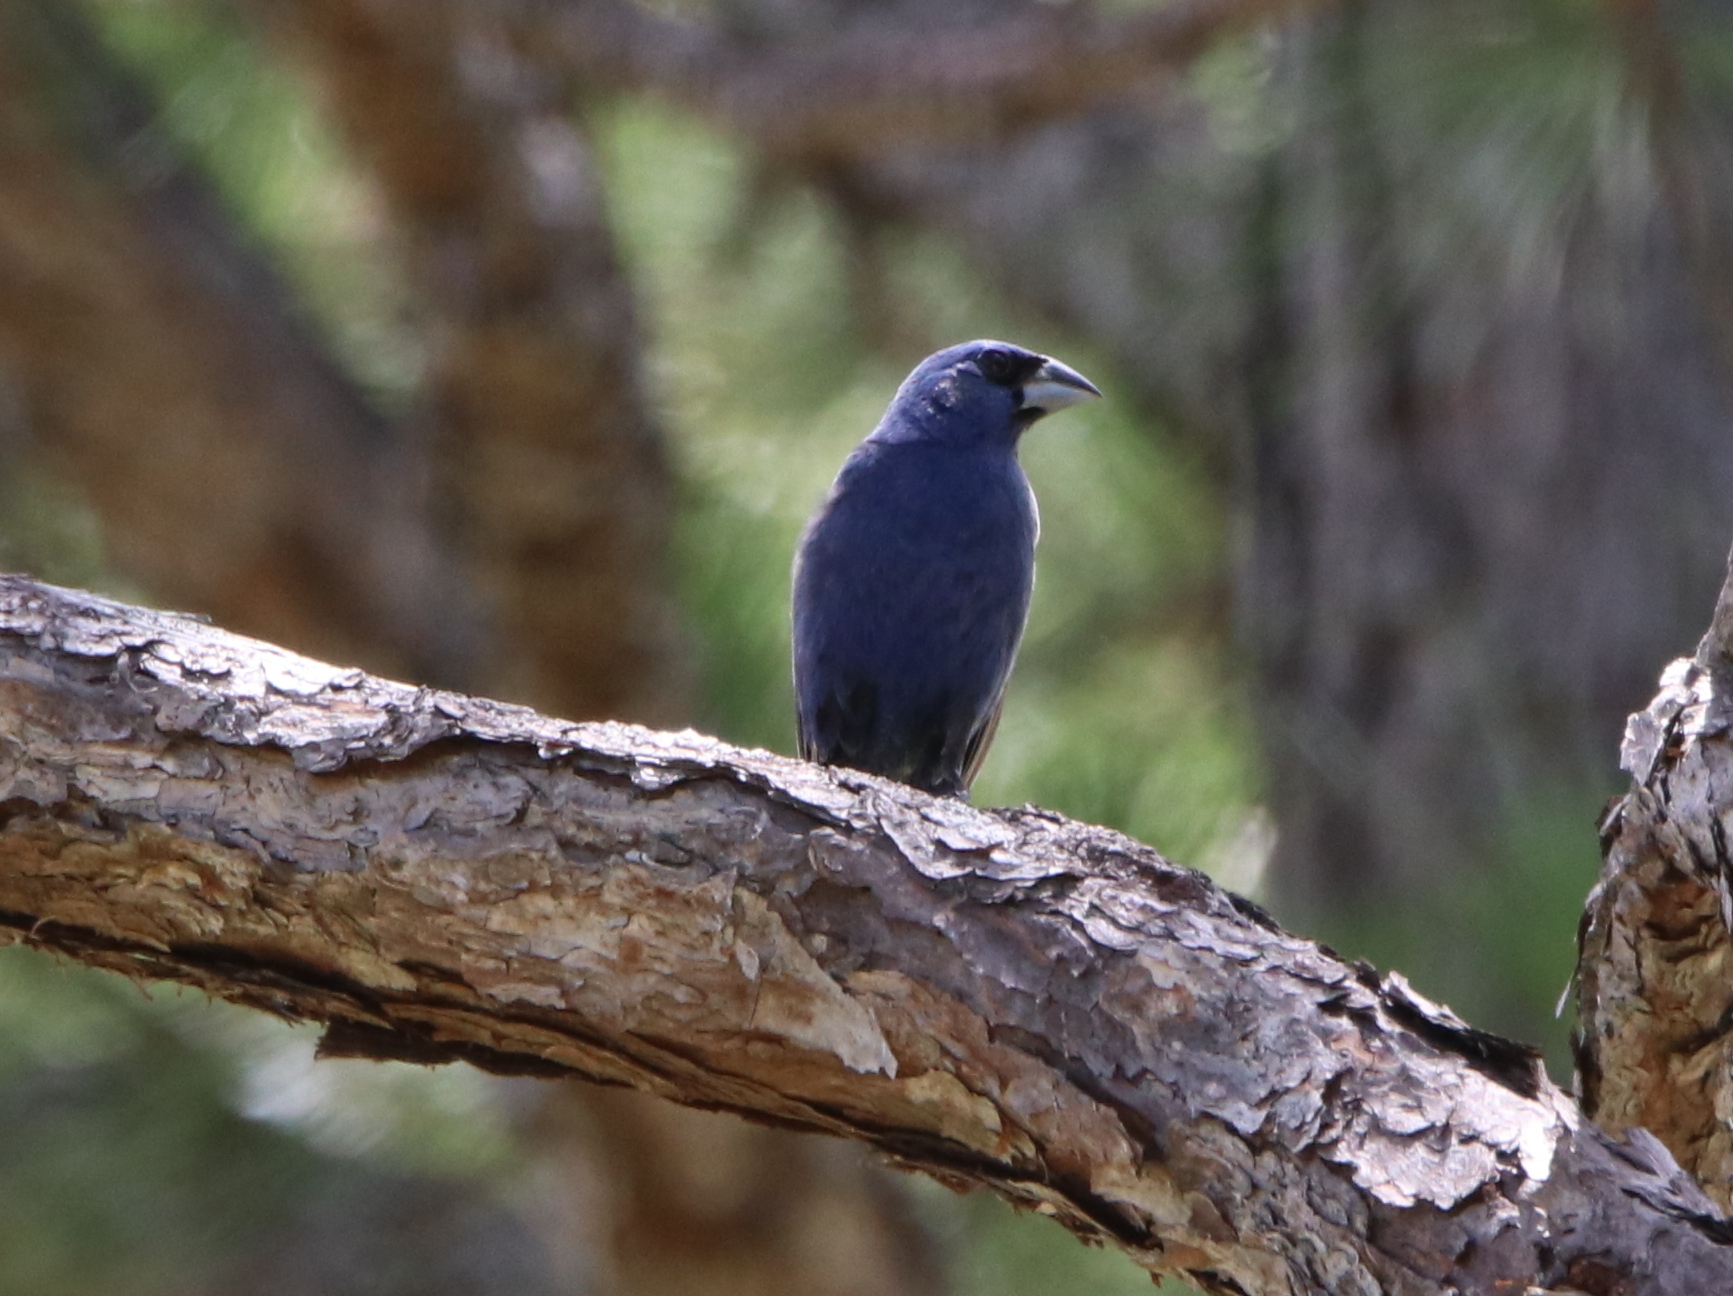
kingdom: Animalia
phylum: Chordata
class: Aves
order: Passeriformes
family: Cardinalidae
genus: Passerina
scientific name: Passerina caerulea
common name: Blue grosbeak
